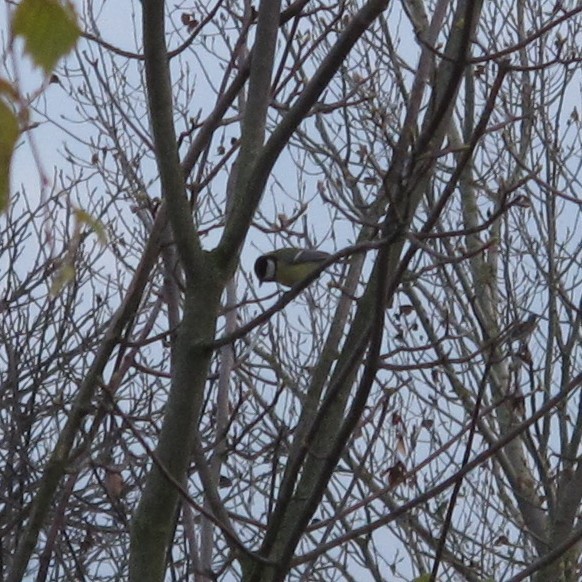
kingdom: Animalia
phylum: Chordata
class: Aves
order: Passeriformes
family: Paridae
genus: Parus
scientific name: Parus major
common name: Great tit
